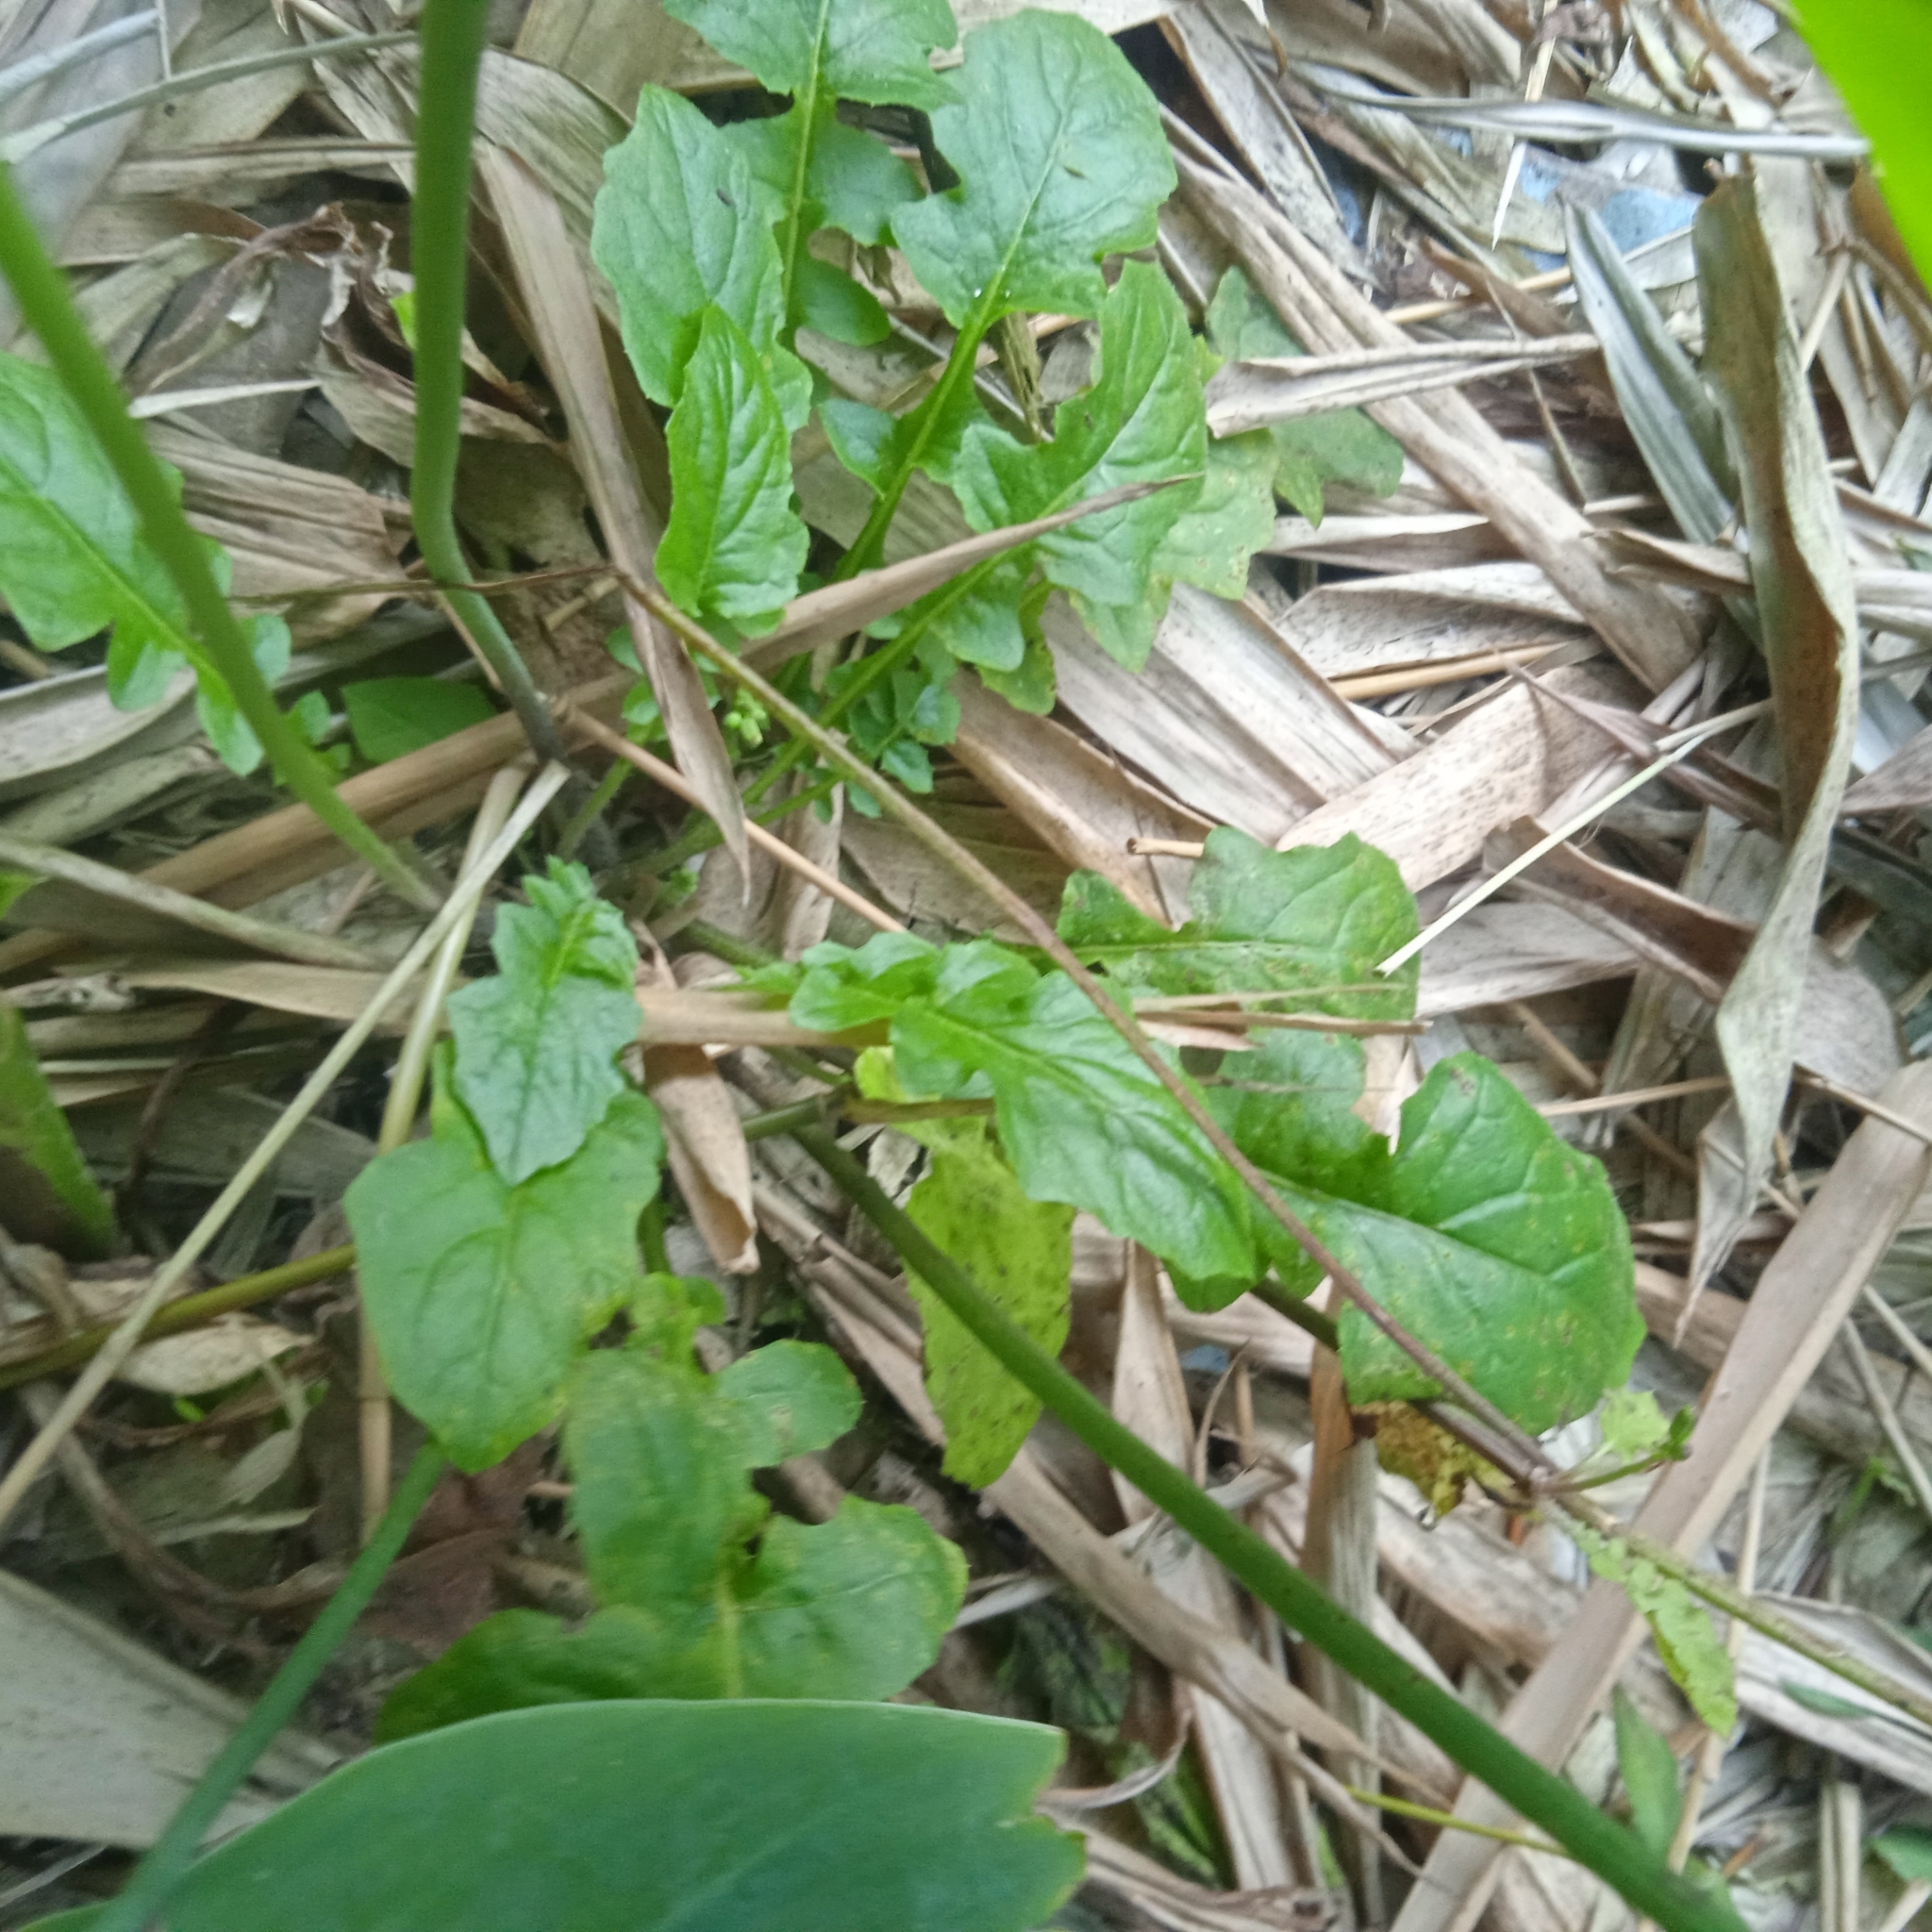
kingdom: Plantae
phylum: Tracheophyta
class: Magnoliopsida
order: Asterales
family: Asteraceae
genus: Youngia
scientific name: Youngia japonica
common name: Oriental false hawksbeard
